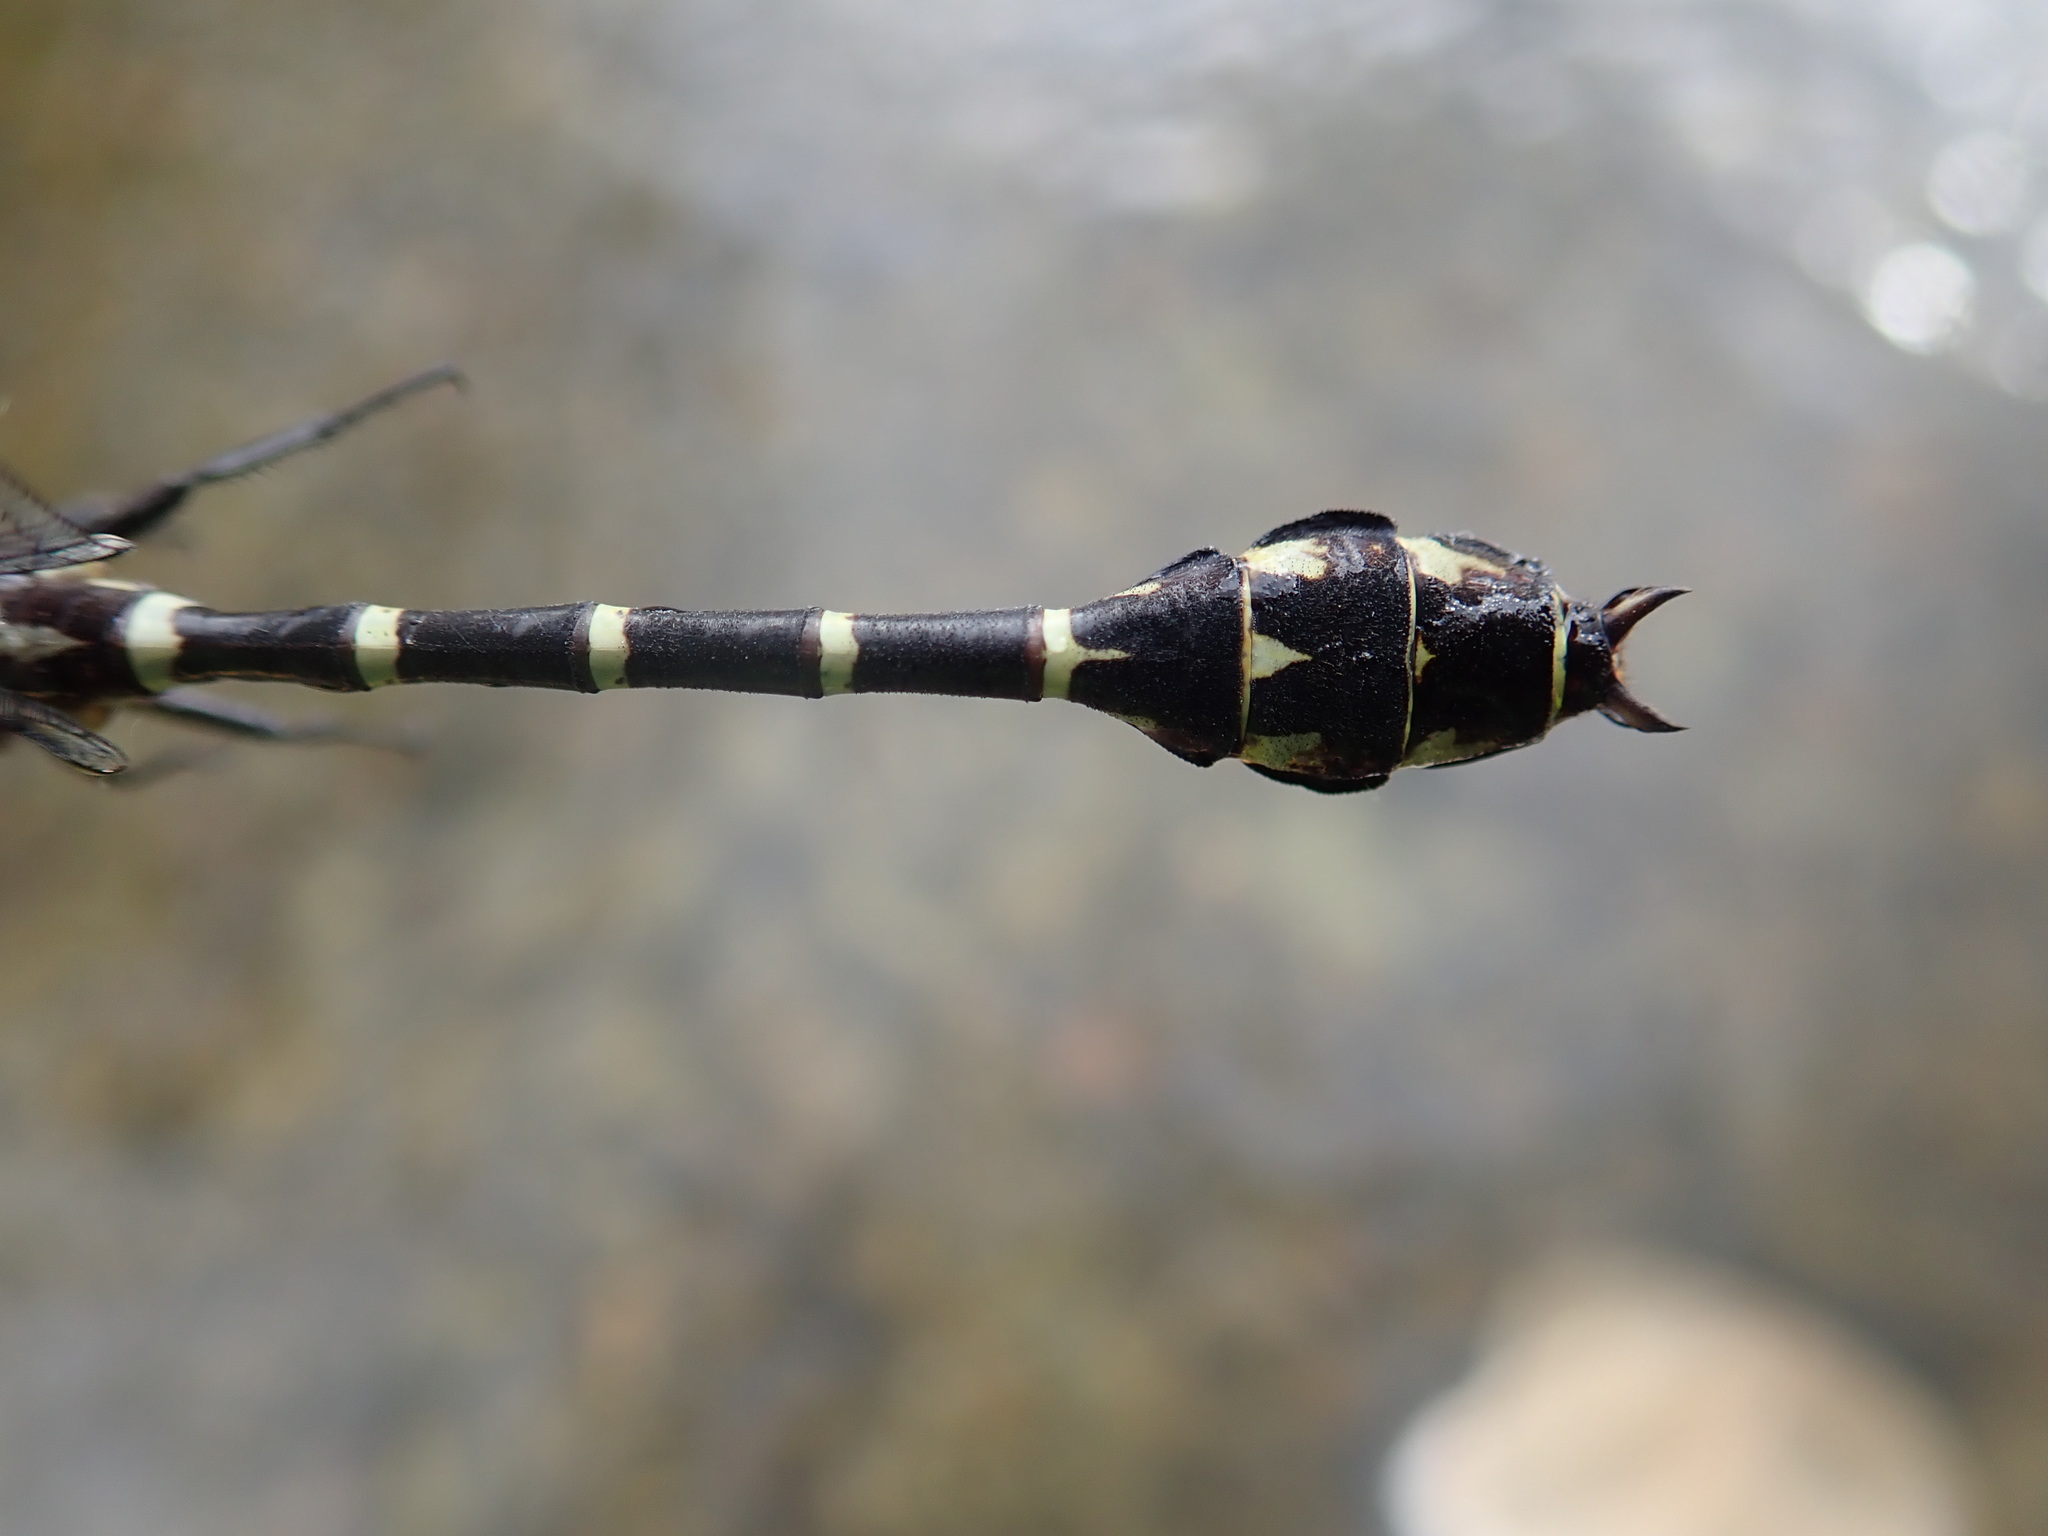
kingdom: Animalia
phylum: Arthropoda
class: Insecta
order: Odonata
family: Gomphidae
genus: Stylurus
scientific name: Stylurus scudderi
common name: Zebra clubtail
